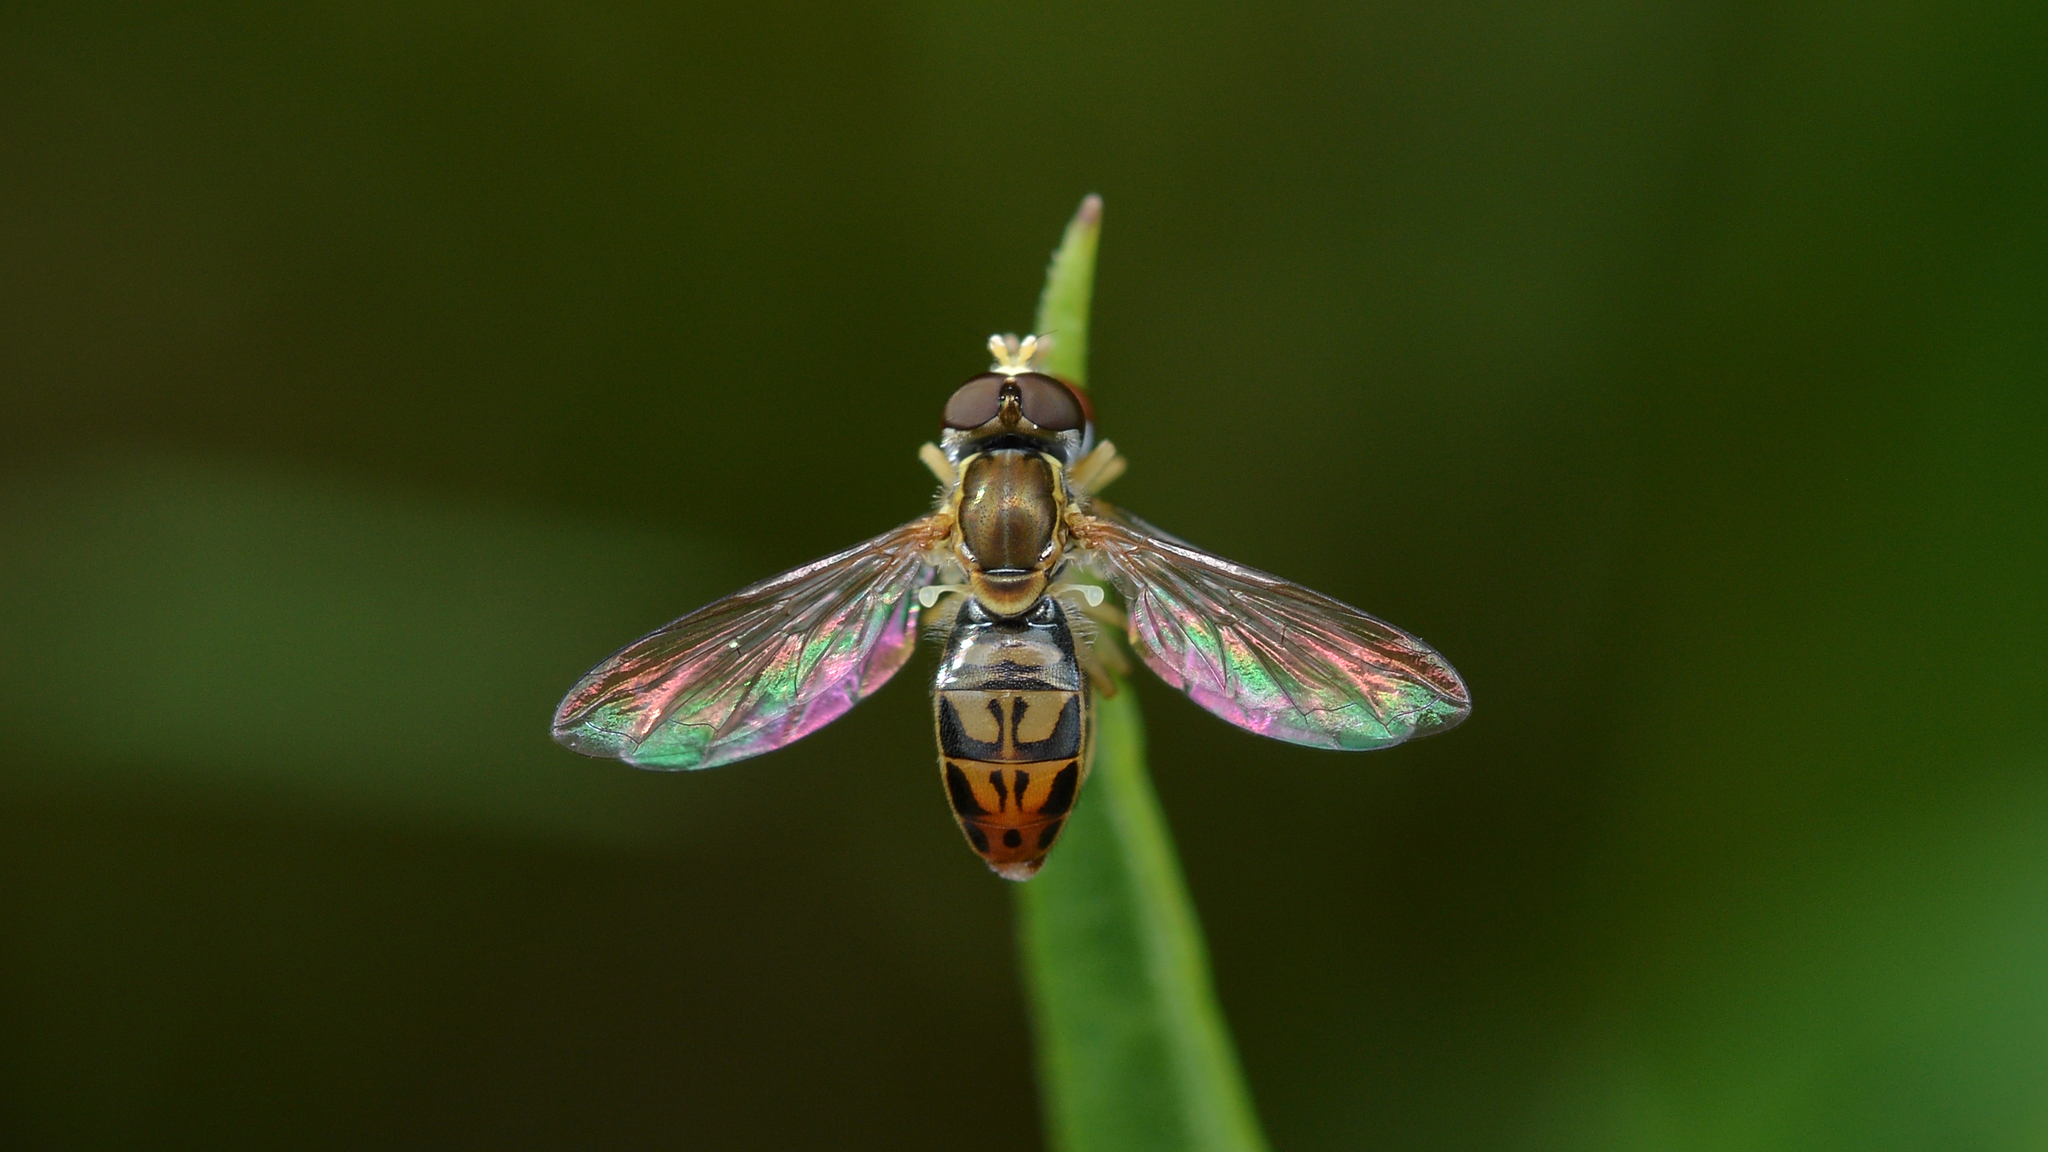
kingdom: Animalia
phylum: Arthropoda
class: Insecta
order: Diptera
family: Syrphidae
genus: Toxomerus
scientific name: Toxomerus marginatus
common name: Syrphid fly
